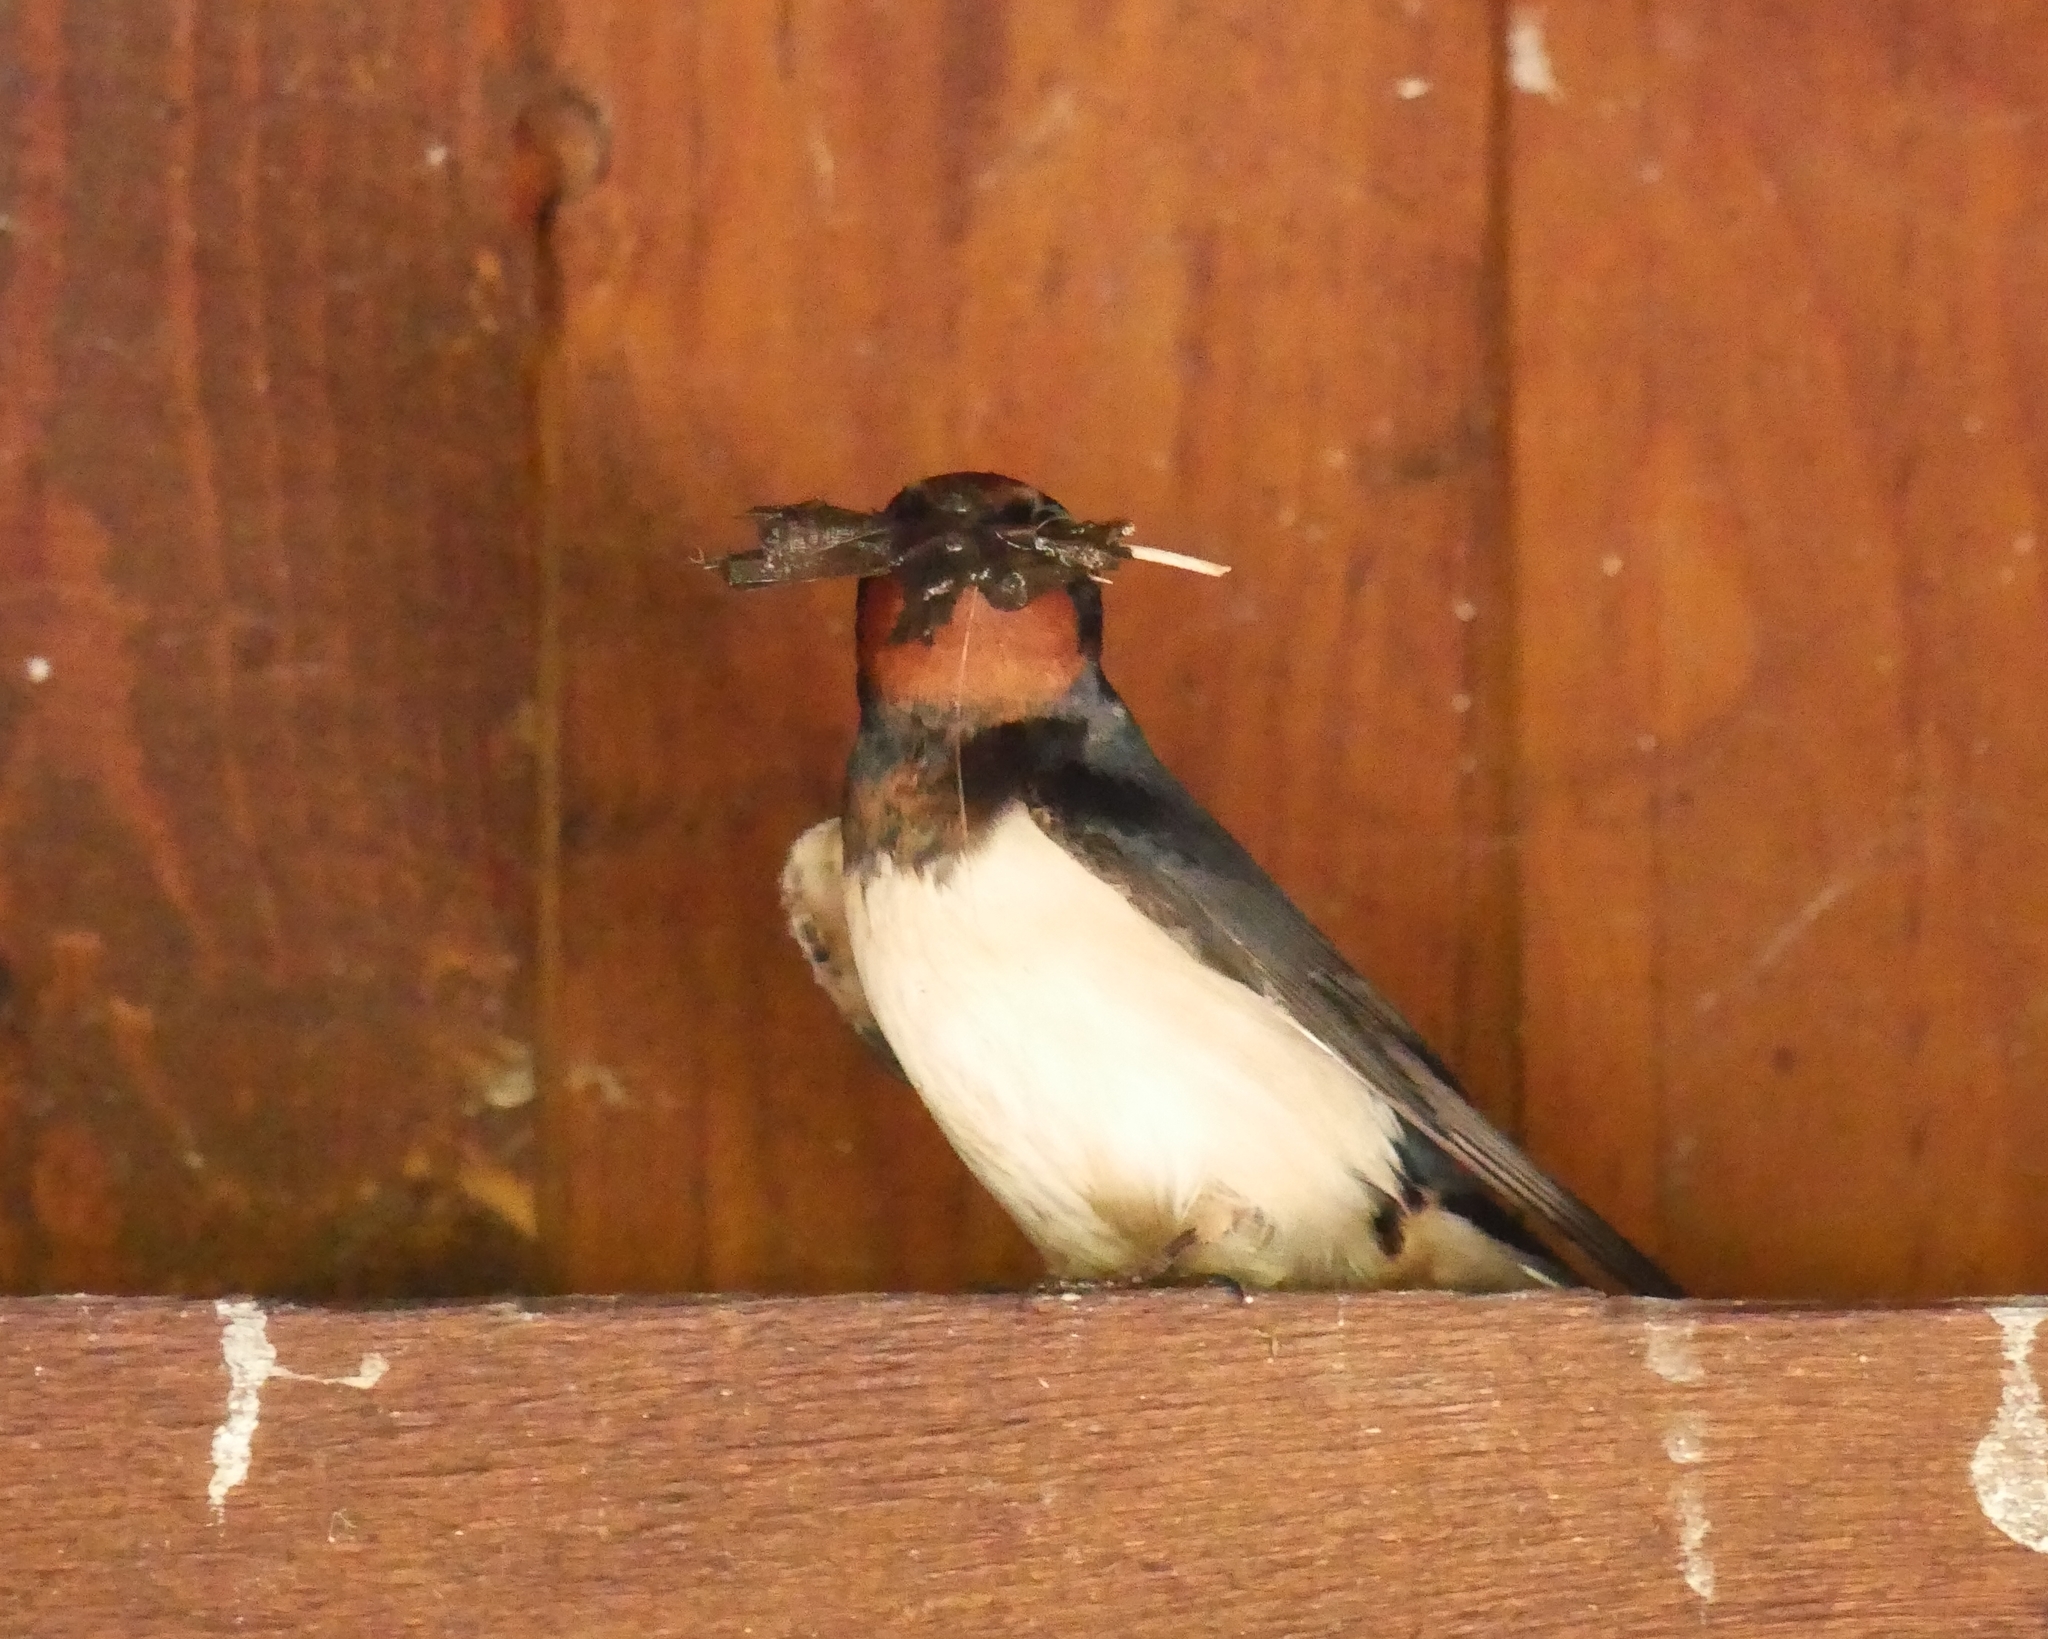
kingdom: Animalia
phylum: Chordata
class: Aves
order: Passeriformes
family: Hirundinidae
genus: Hirundo
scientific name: Hirundo rustica
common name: Barn swallow
